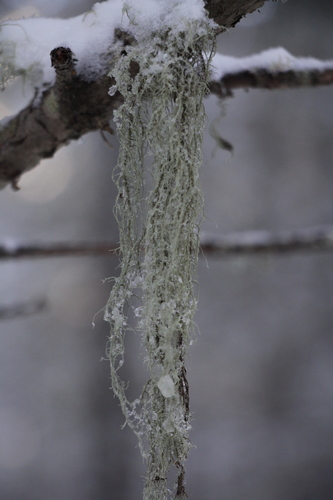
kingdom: Fungi
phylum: Ascomycota
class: Lecanoromycetes
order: Lecanorales
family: Parmeliaceae
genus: Usnea
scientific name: Usnea
